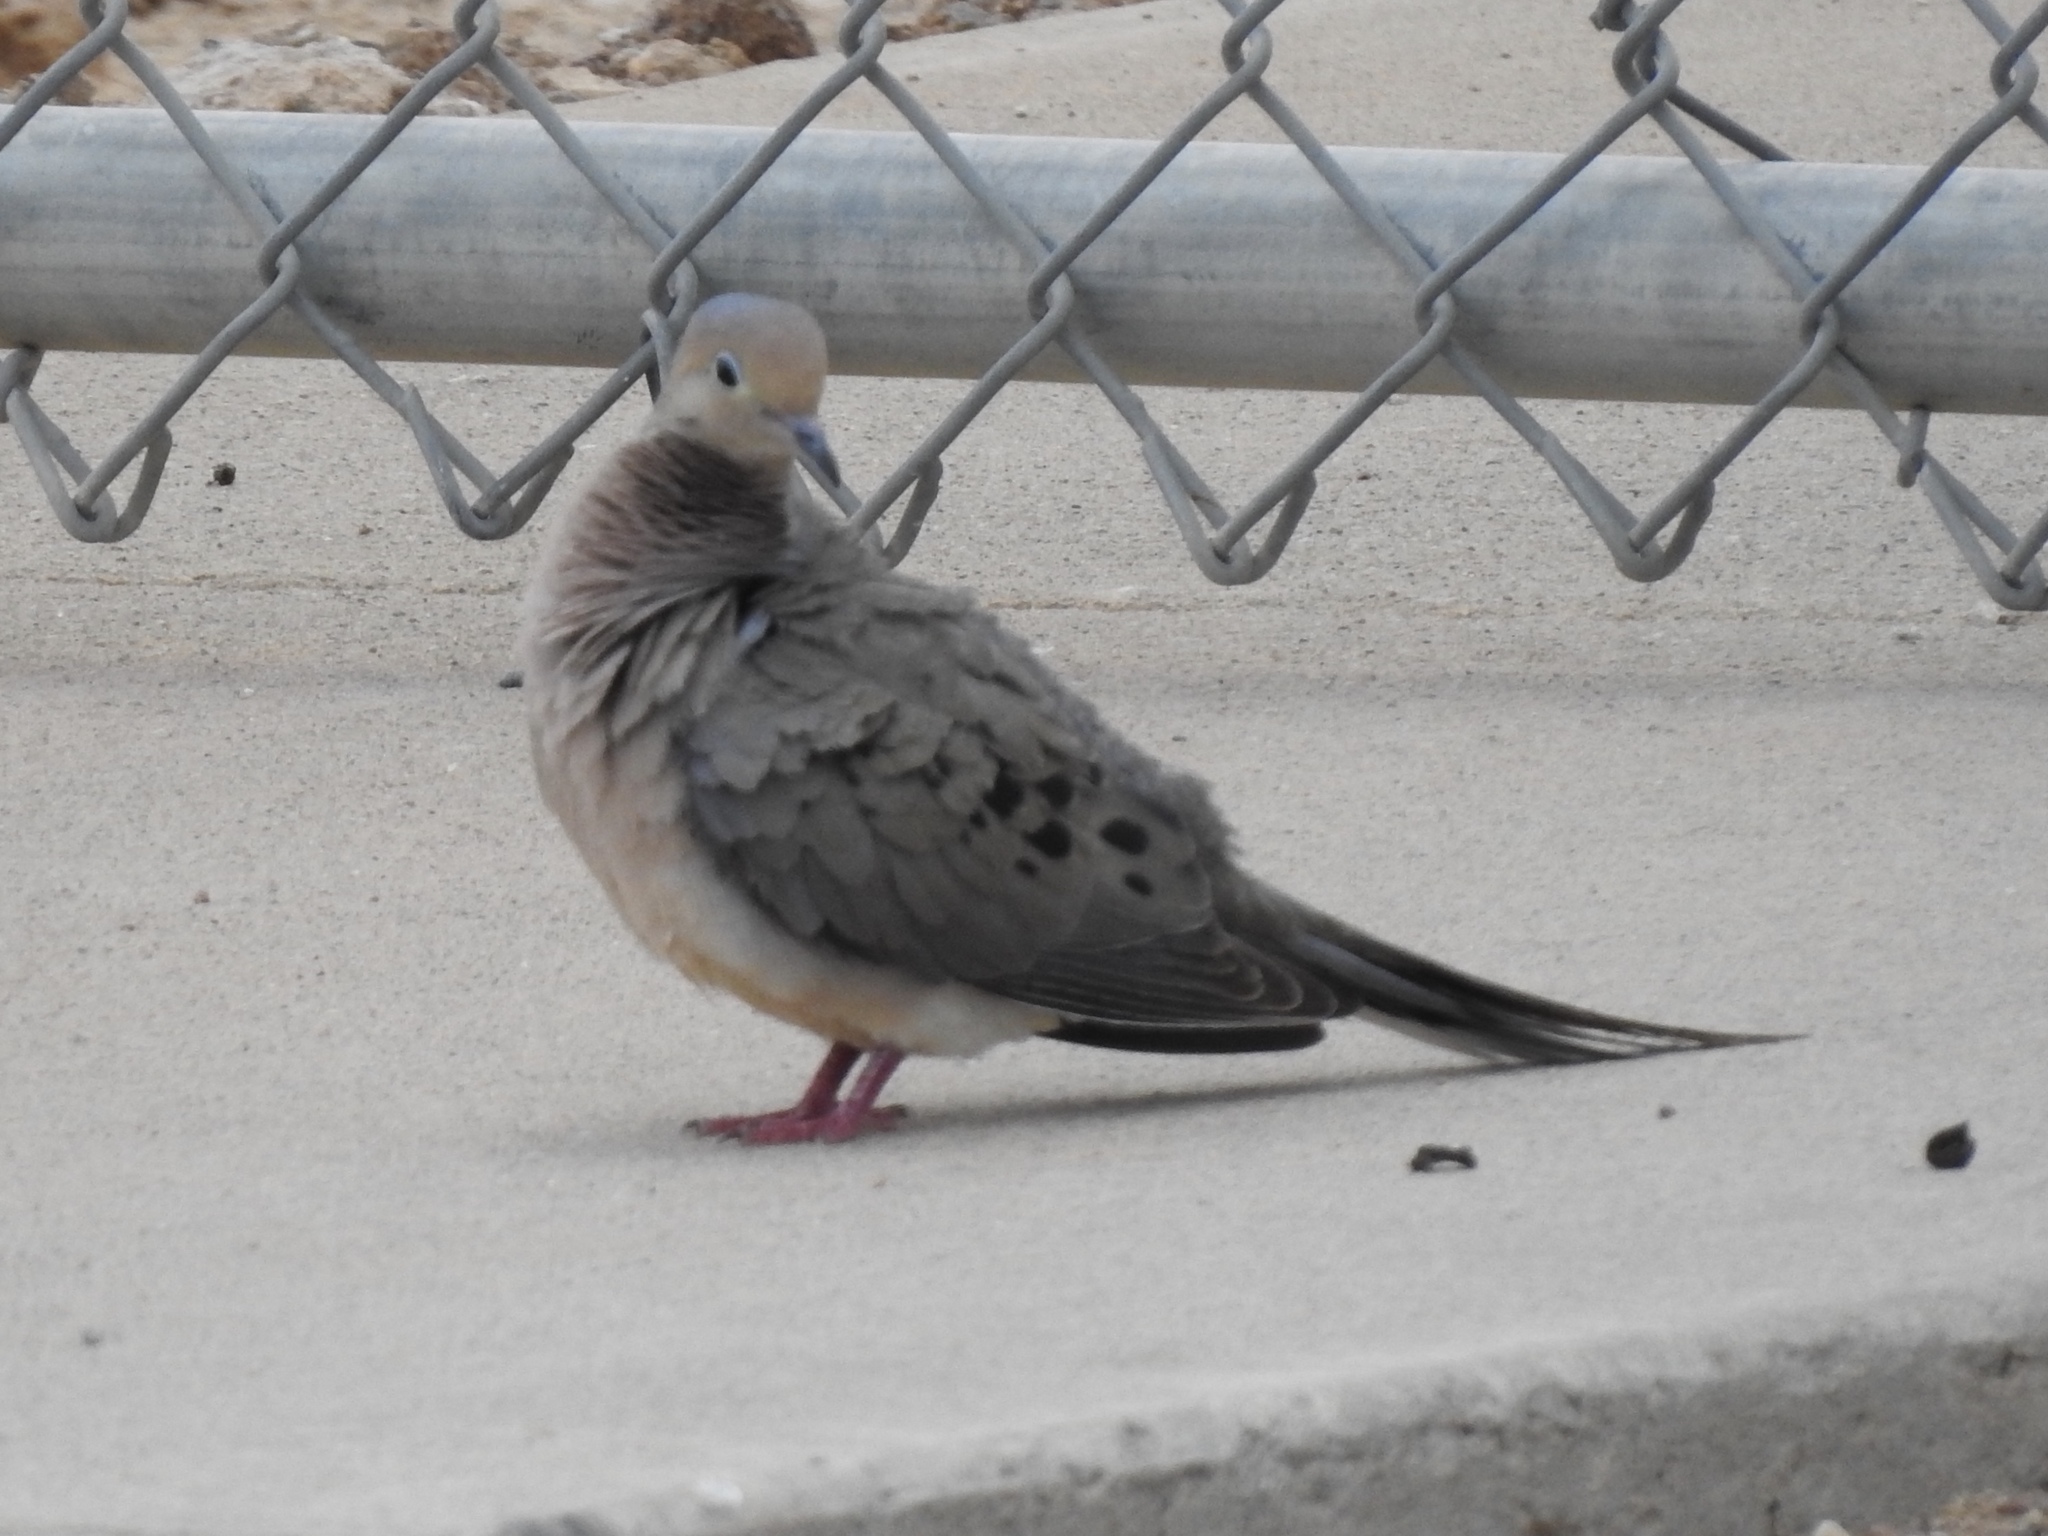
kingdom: Animalia
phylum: Chordata
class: Aves
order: Columbiformes
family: Columbidae
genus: Zenaida
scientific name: Zenaida macroura
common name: Mourning dove
